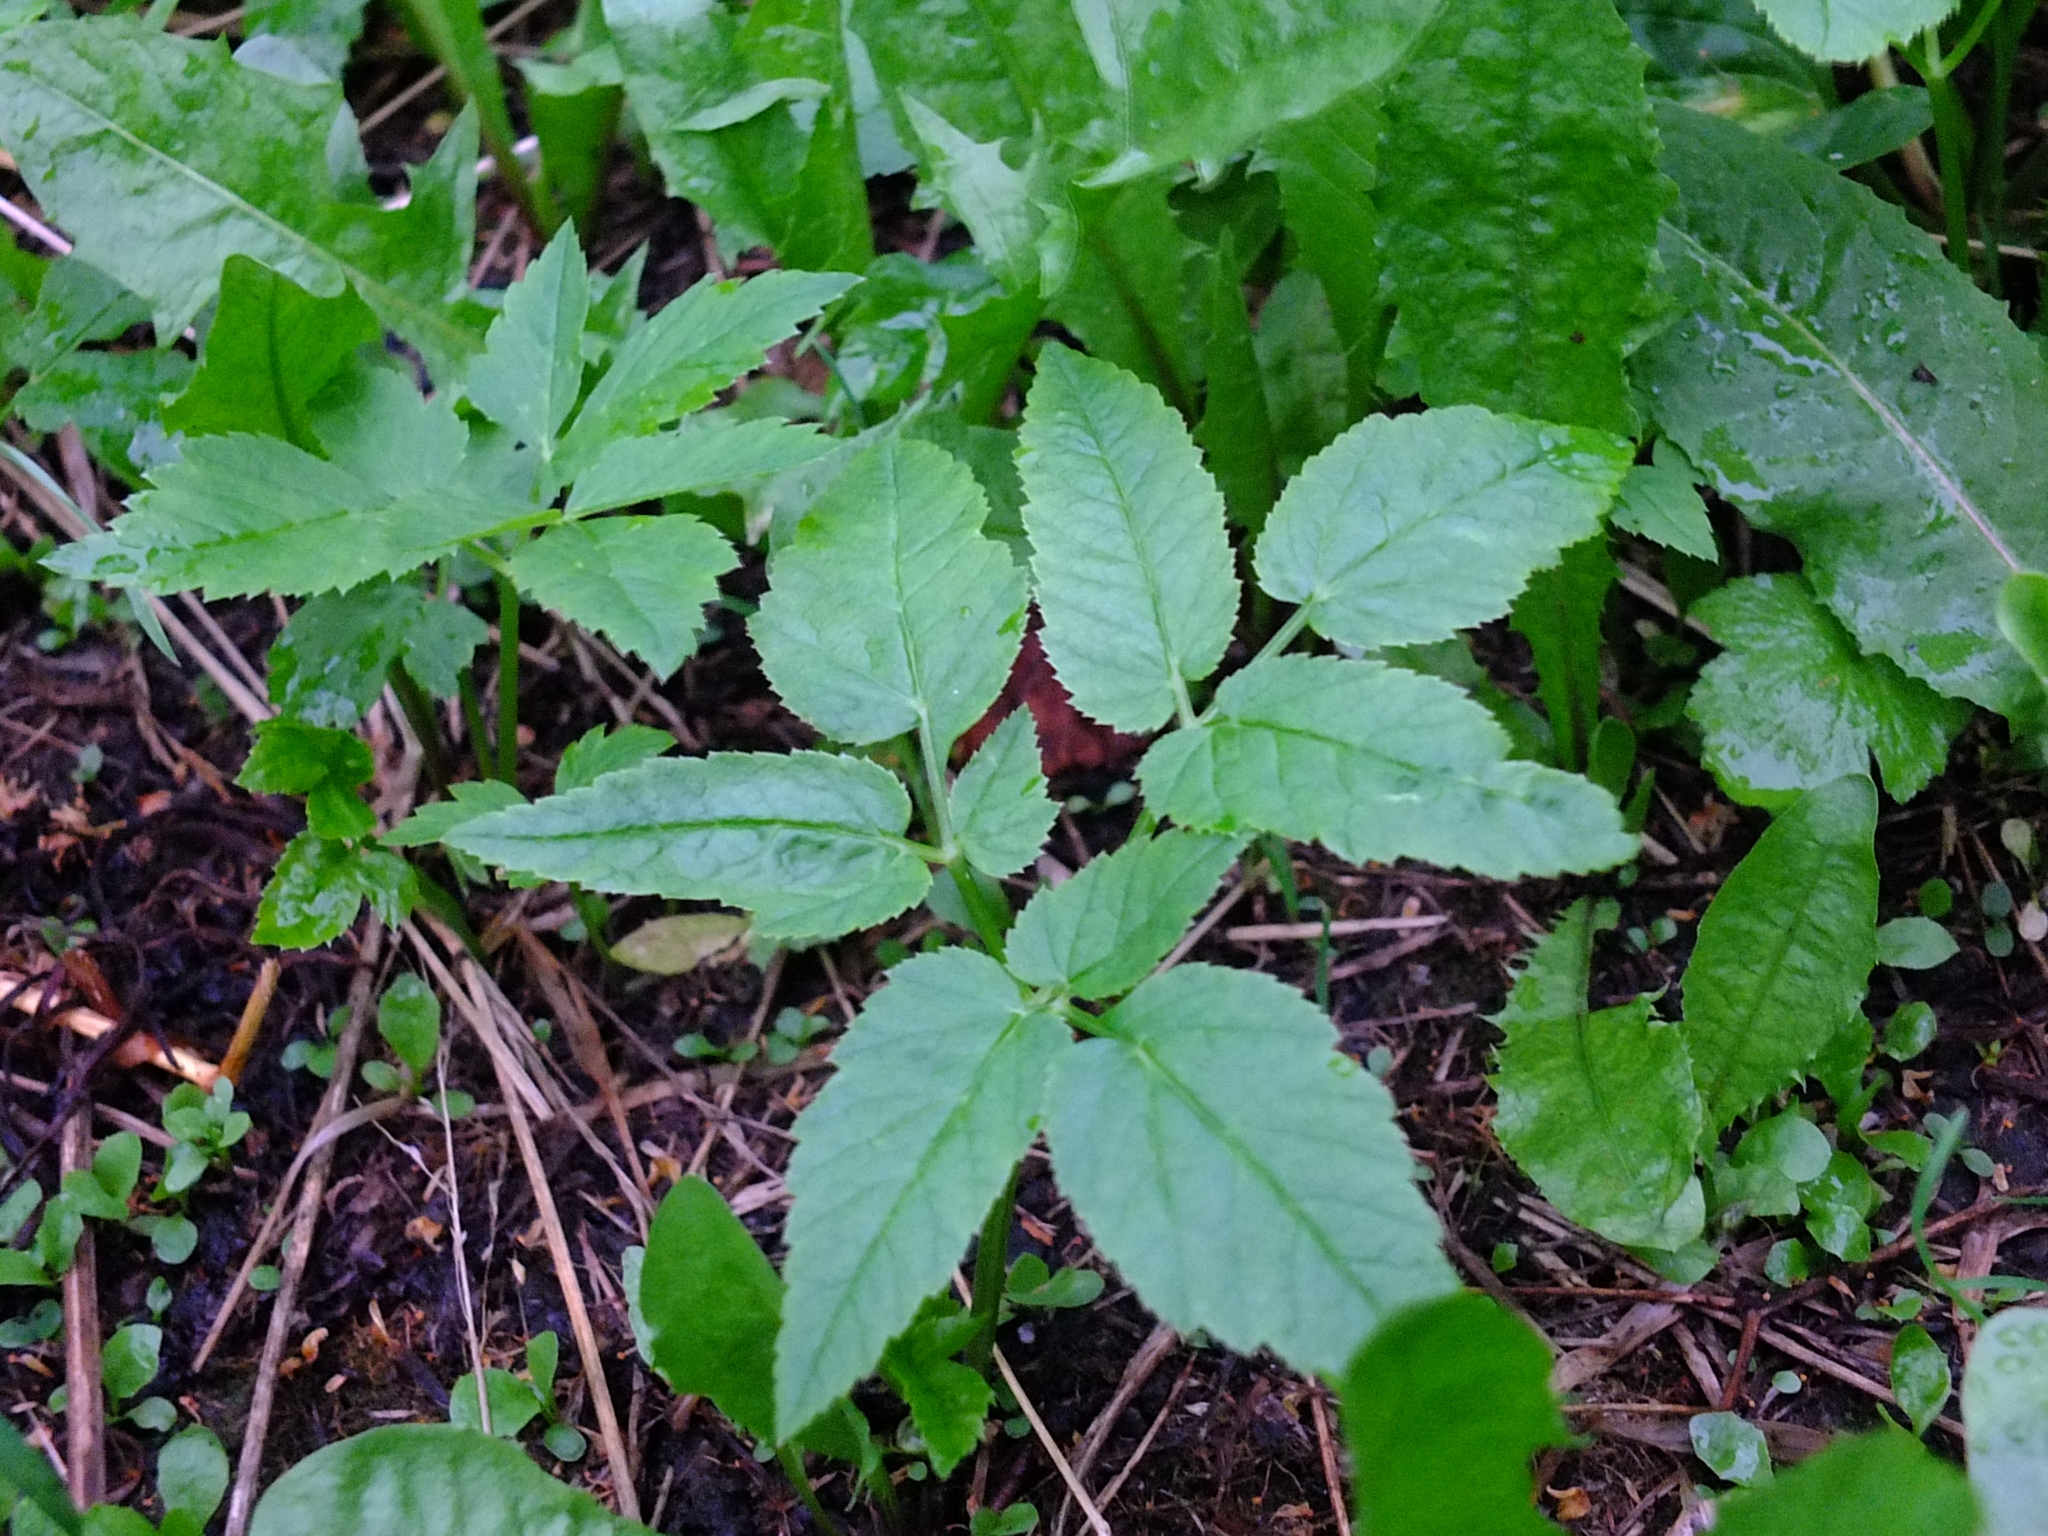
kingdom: Plantae
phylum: Tracheophyta
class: Magnoliopsida
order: Apiales
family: Apiaceae
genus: Aegopodium
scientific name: Aegopodium podagraria
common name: Ground-elder
